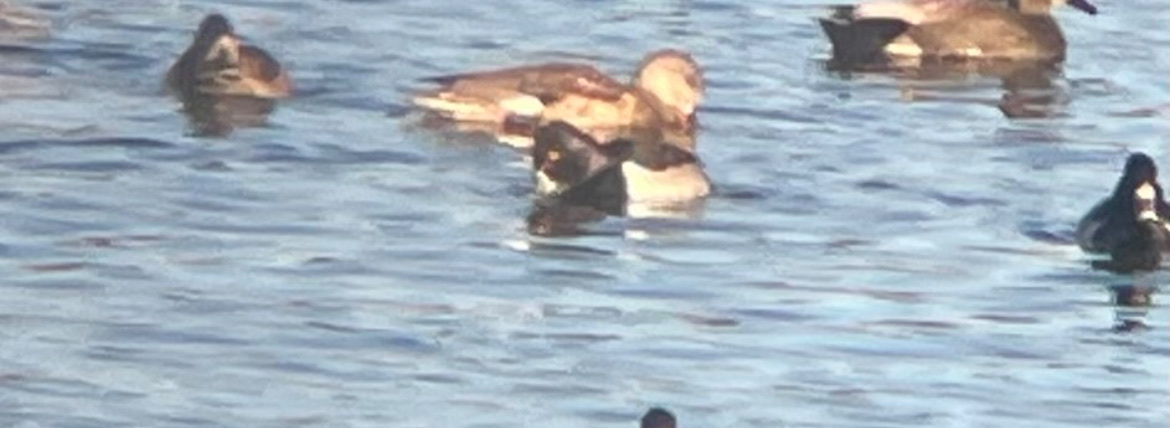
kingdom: Animalia
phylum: Chordata
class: Aves
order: Anseriformes
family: Anatidae
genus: Mareca
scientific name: Mareca strepera
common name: Gadwall
